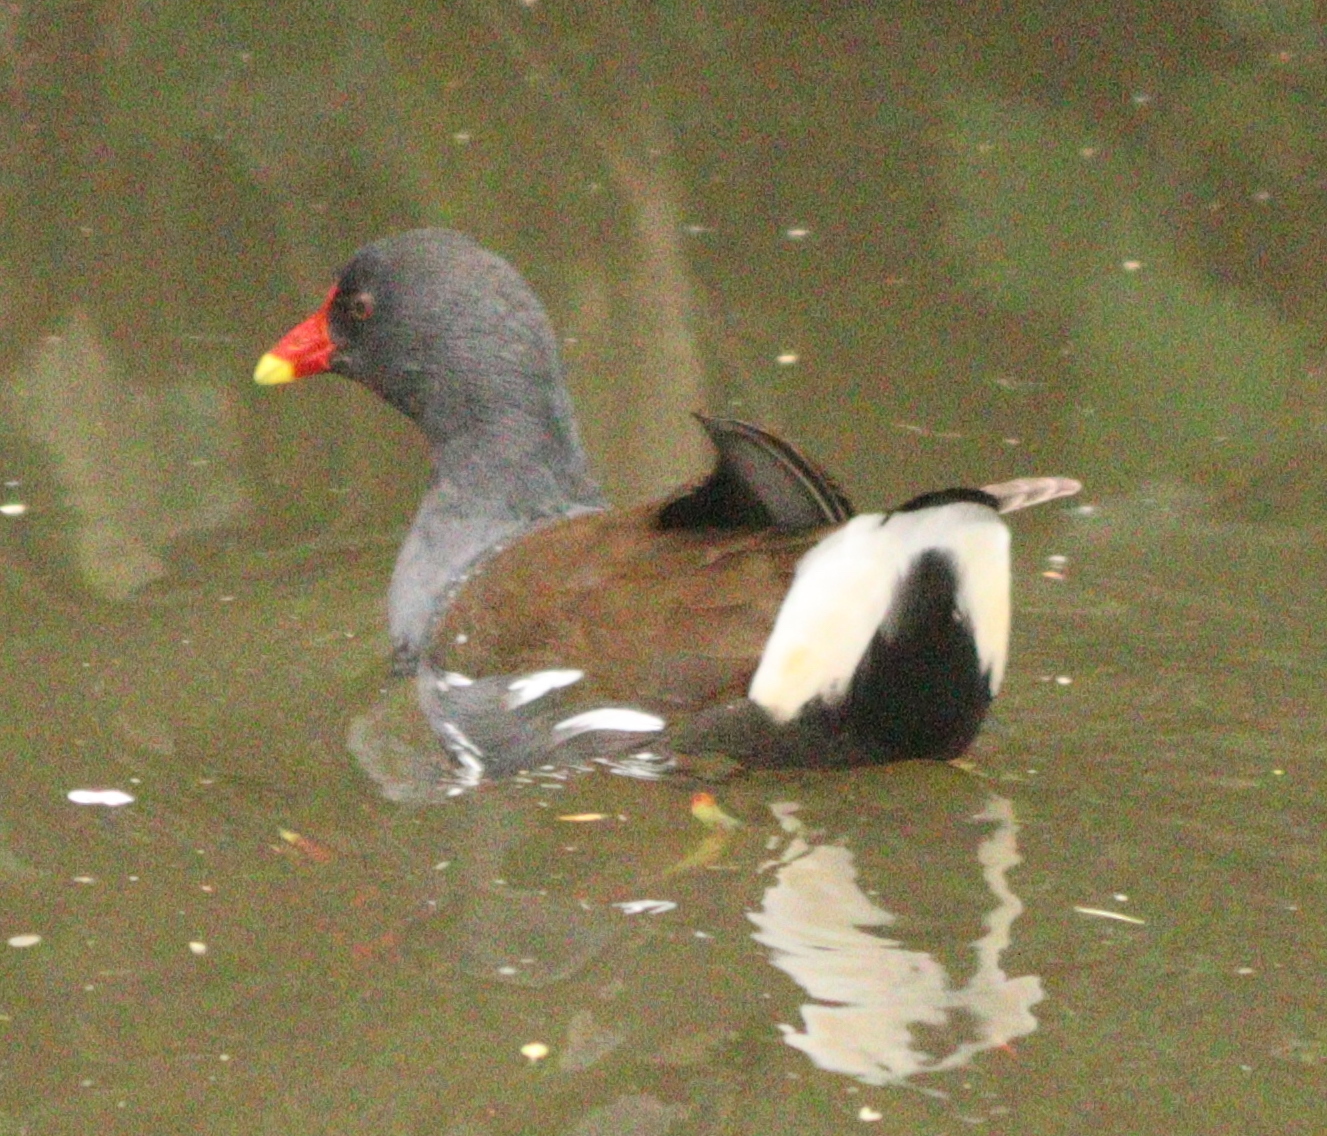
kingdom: Animalia
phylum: Chordata
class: Aves
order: Gruiformes
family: Rallidae
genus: Gallinula
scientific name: Gallinula chloropus
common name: Common moorhen
